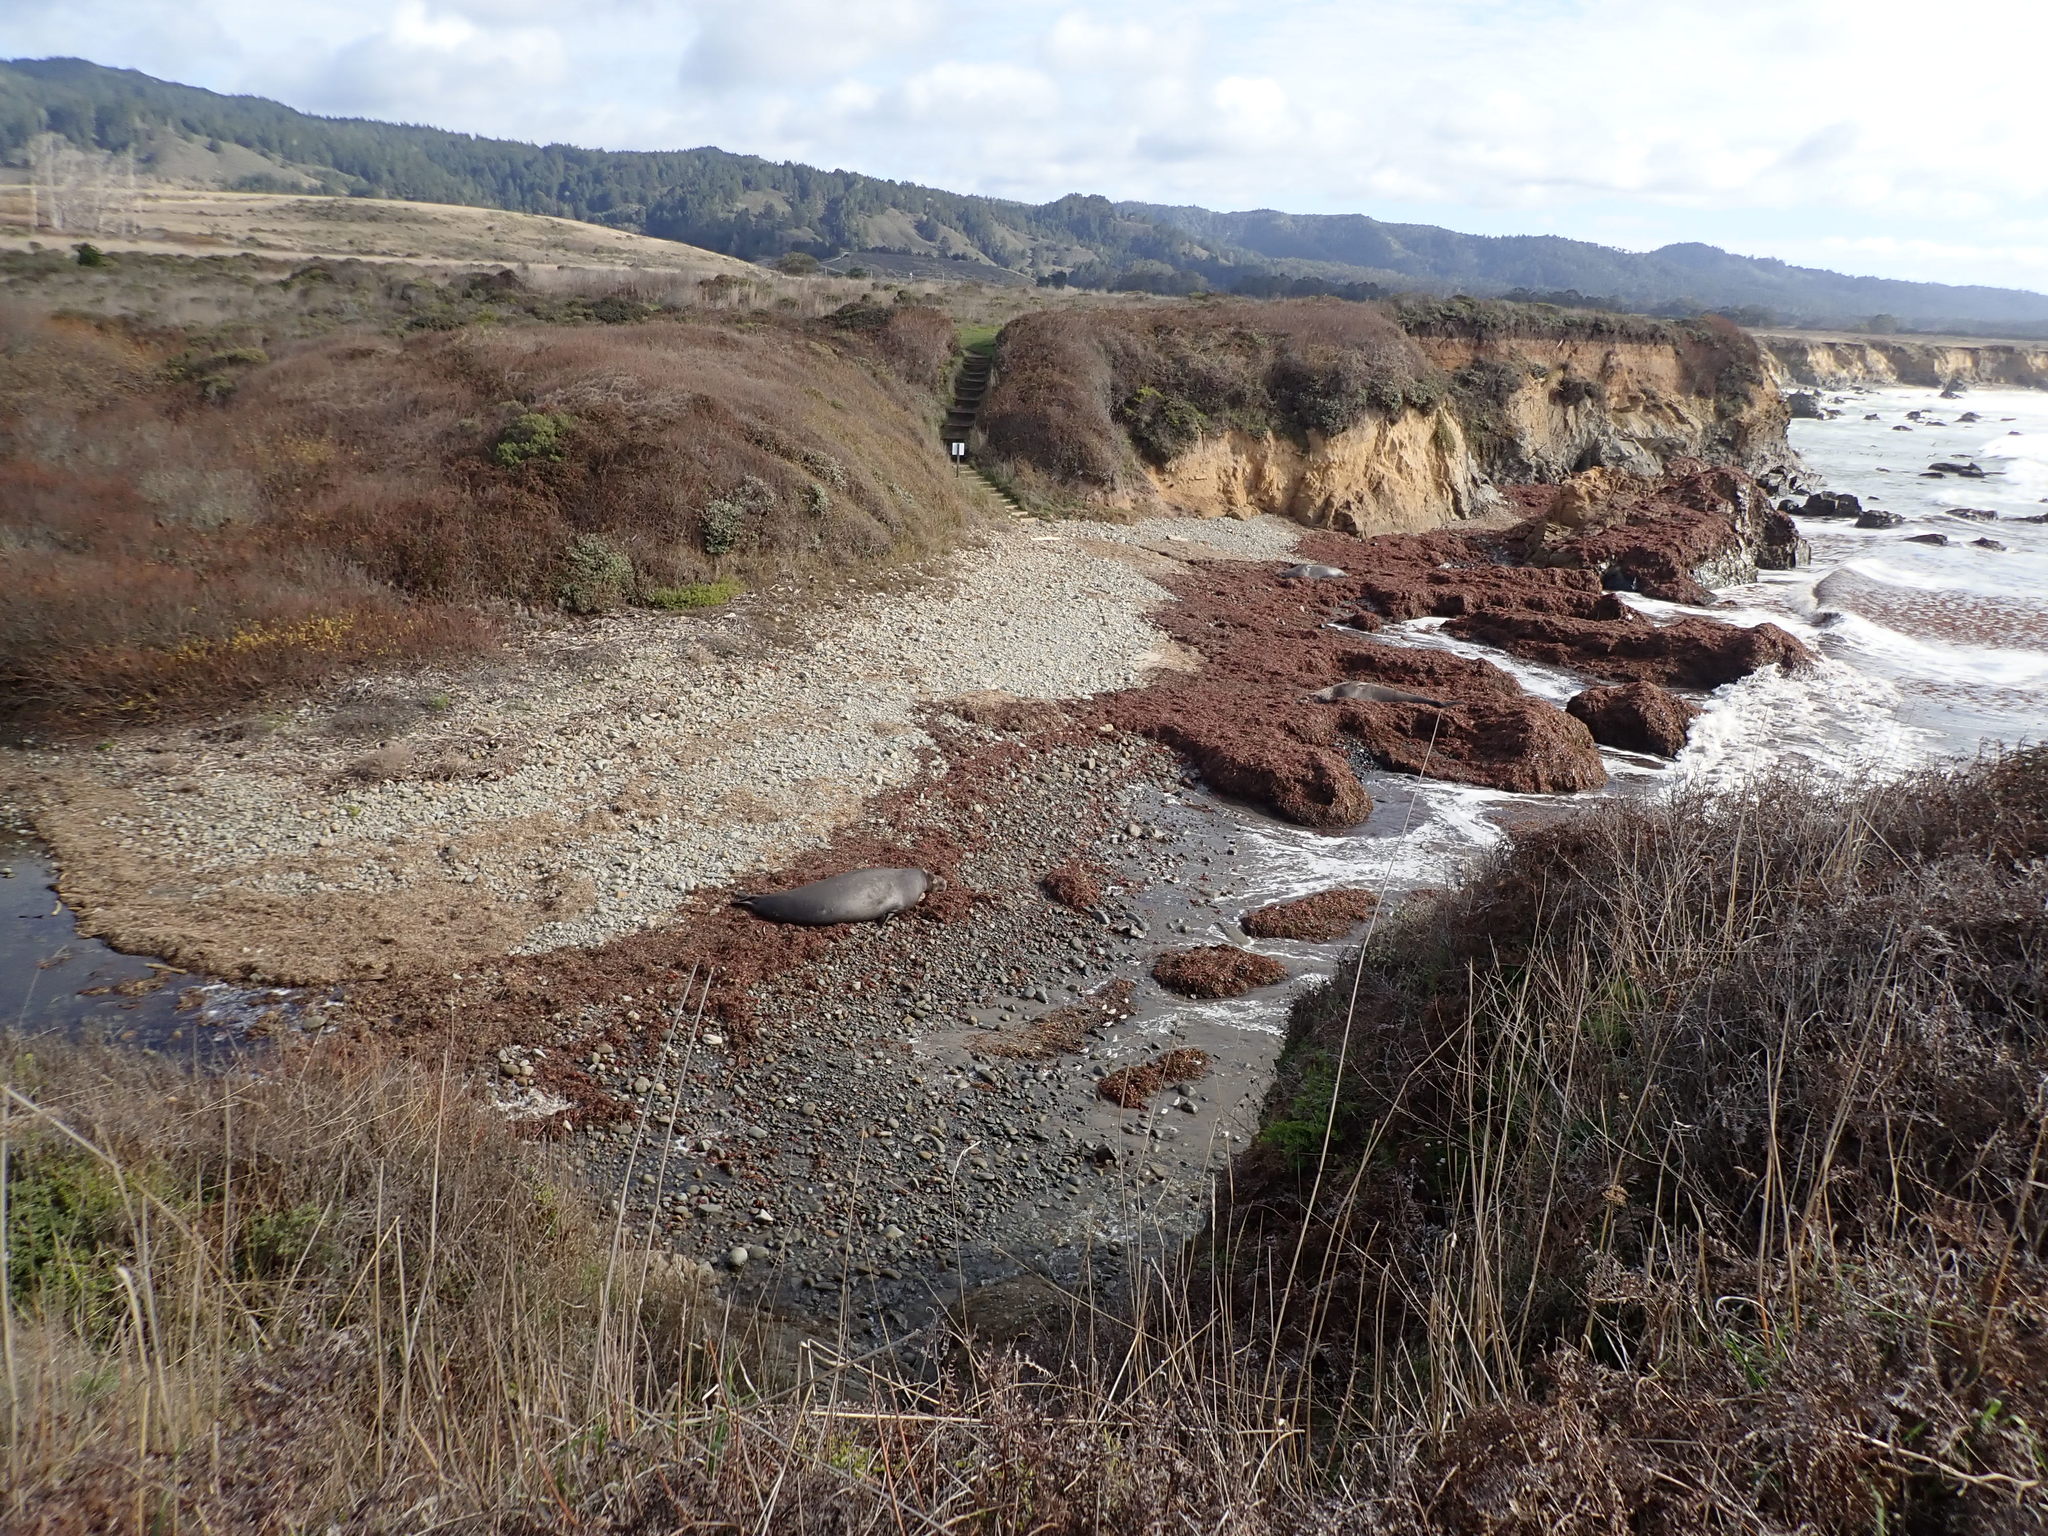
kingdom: Animalia
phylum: Chordata
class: Mammalia
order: Carnivora
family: Phocidae
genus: Mirounga
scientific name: Mirounga angustirostris
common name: Northern elephant seal
